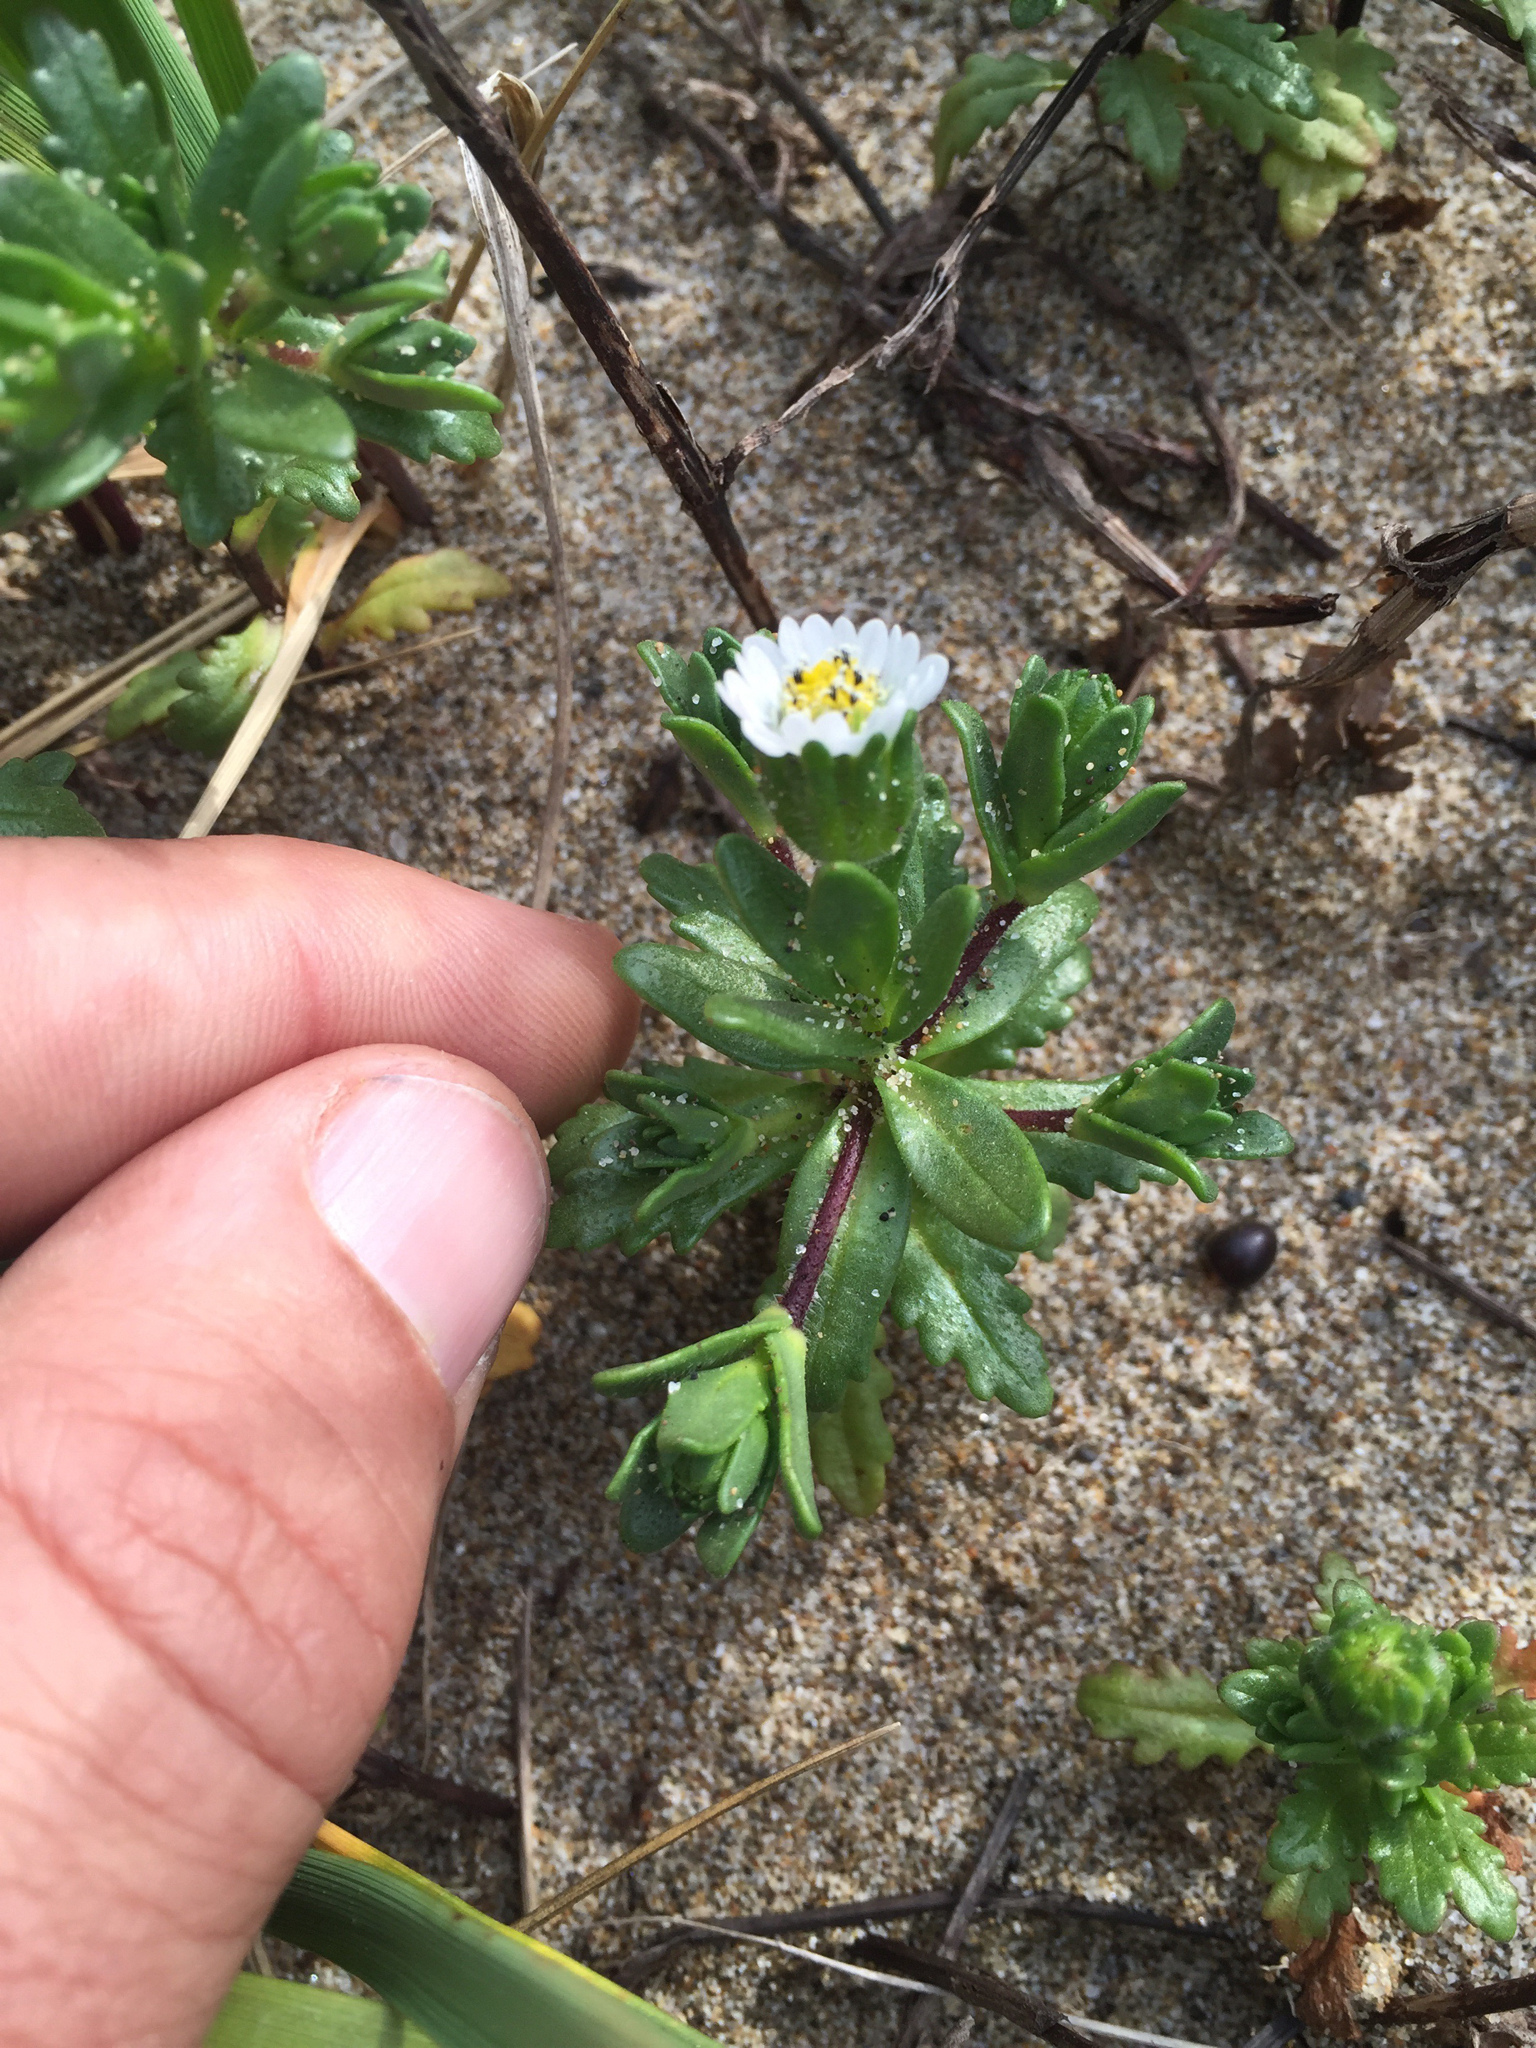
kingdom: Plantae
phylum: Tracheophyta
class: Magnoliopsida
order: Asterales
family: Asteraceae
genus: Layia
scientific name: Layia carnosa
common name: Beach layia
